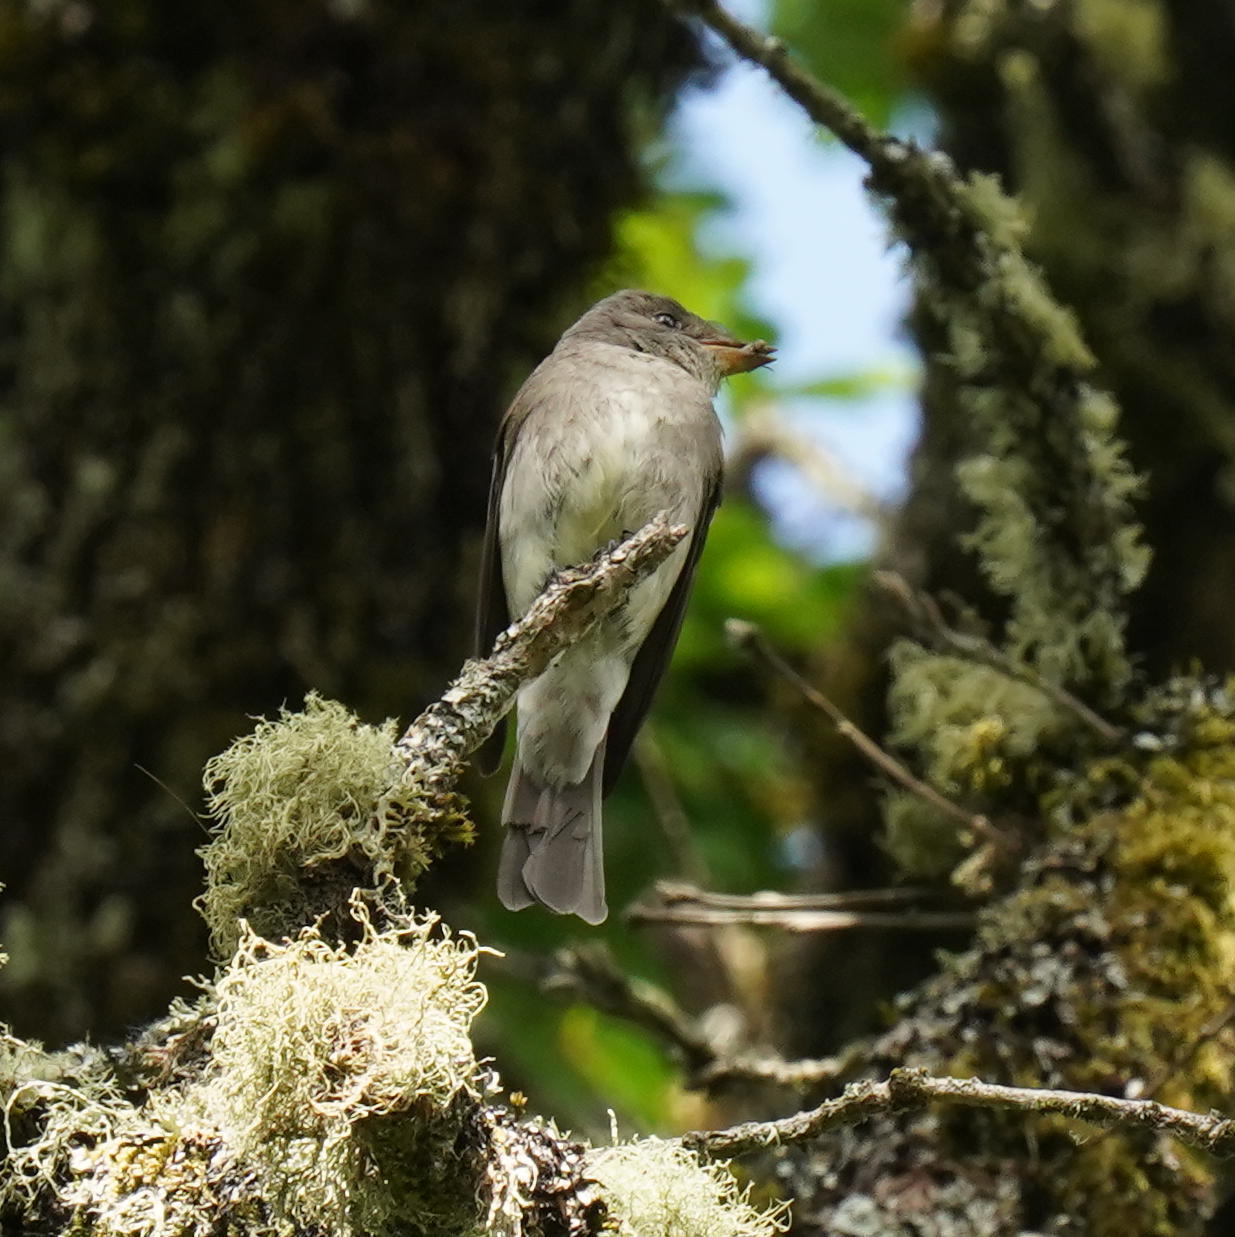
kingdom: Animalia
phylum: Chordata
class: Aves
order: Passeriformes
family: Tyrannidae
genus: Contopus
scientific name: Contopus sordidulus
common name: Western wood-pewee
